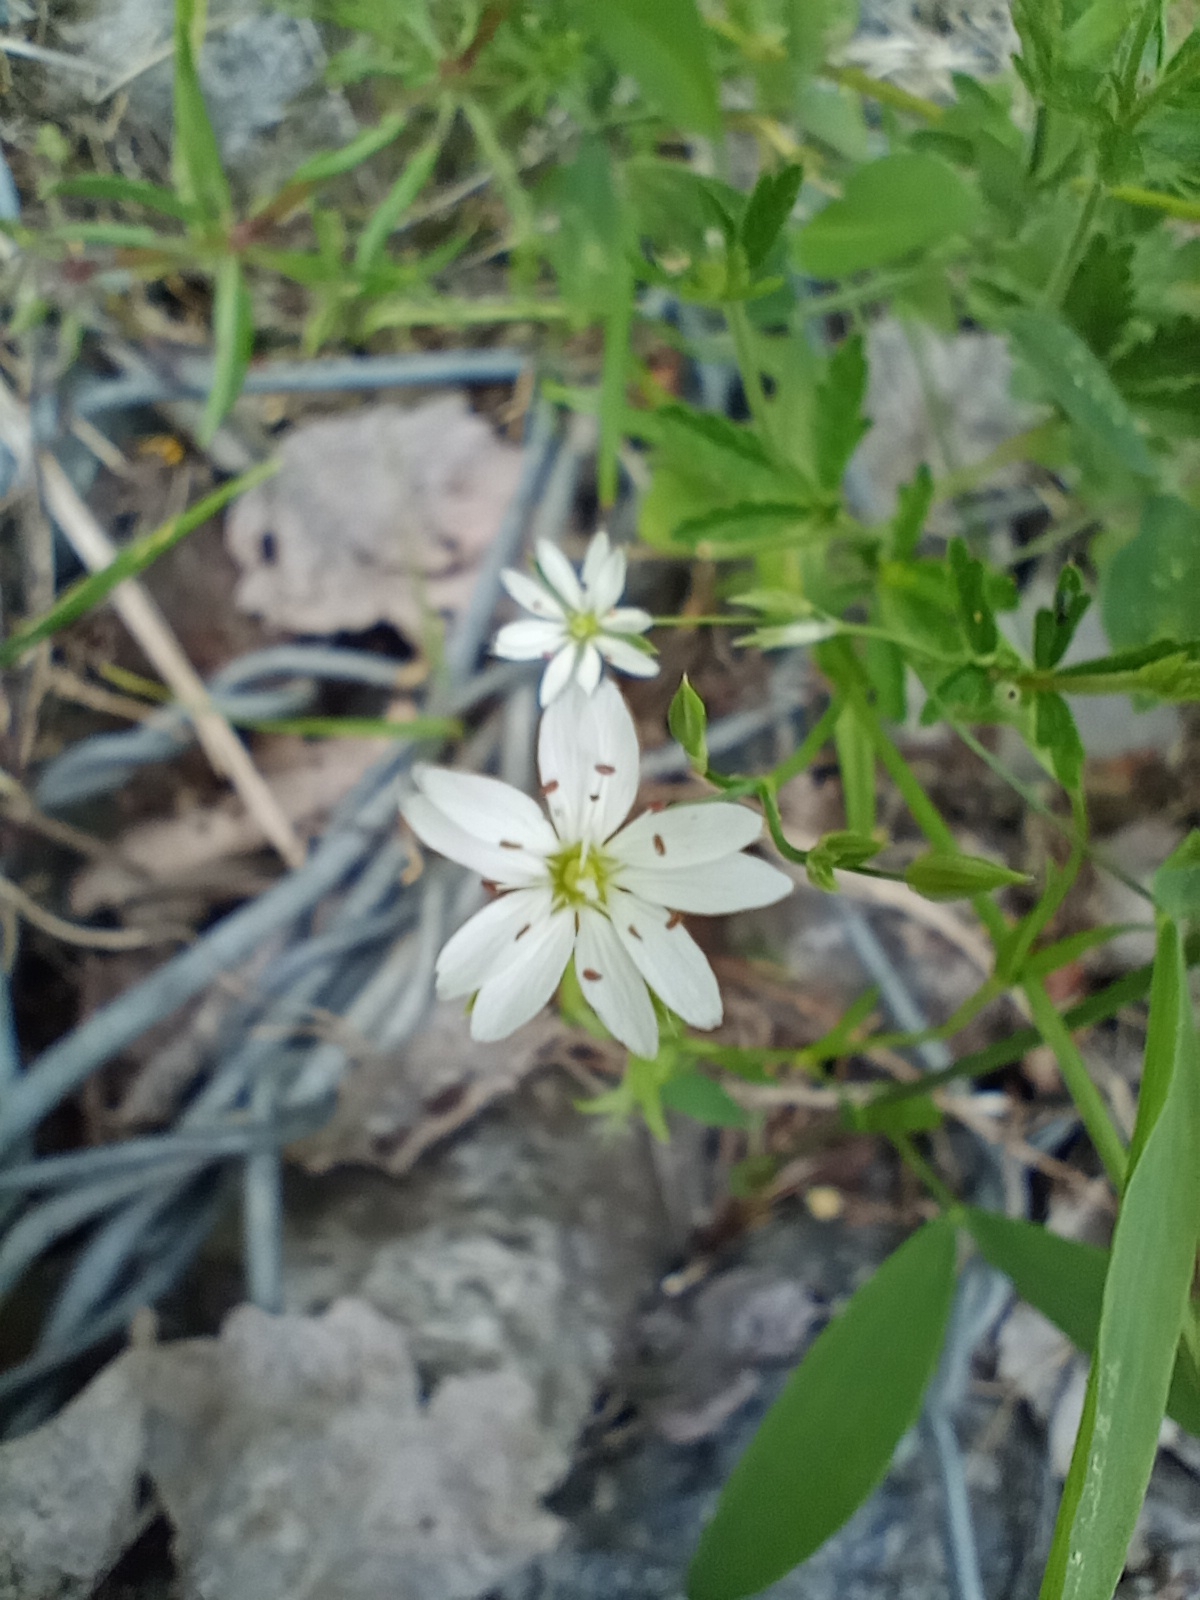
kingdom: Plantae
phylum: Tracheophyta
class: Magnoliopsida
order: Caryophyllales
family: Caryophyllaceae
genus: Stellaria
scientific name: Stellaria graminea
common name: Grass-like starwort
